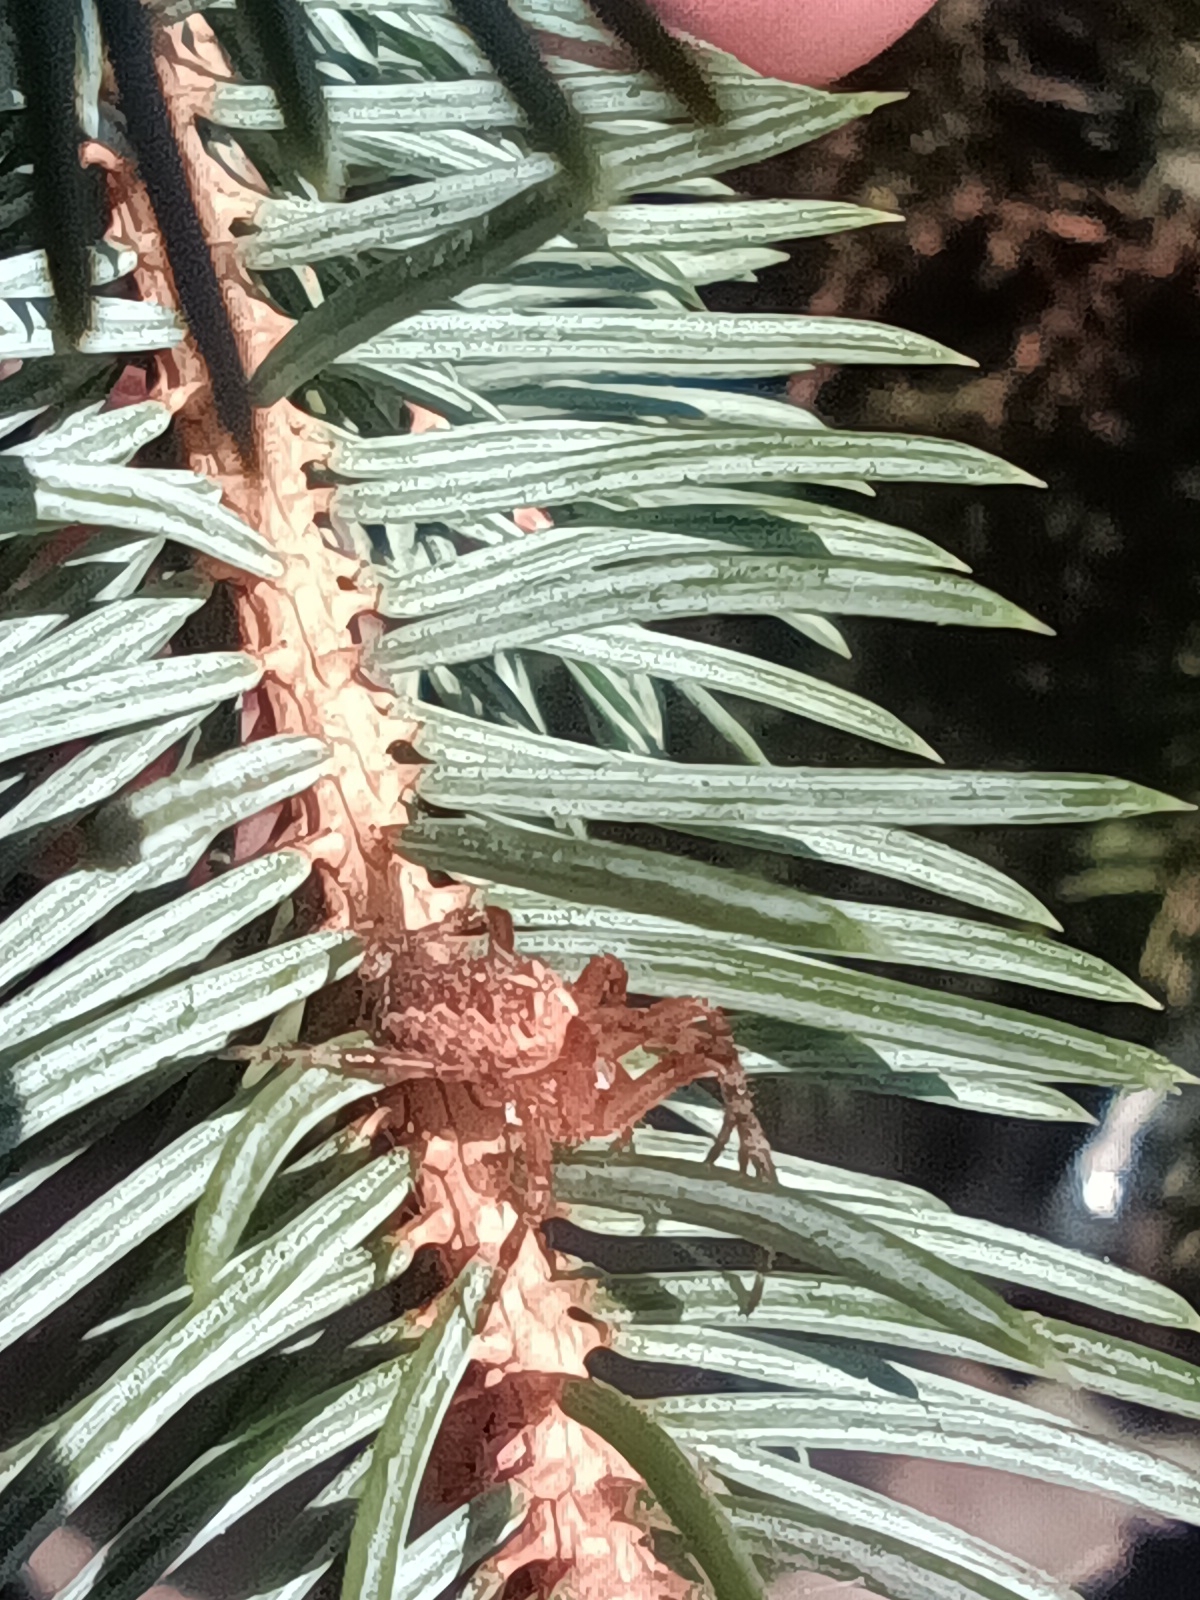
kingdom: Animalia
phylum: Arthropoda
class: Arachnida
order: Araneae
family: Araneidae
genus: Araneus
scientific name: Araneus diadematus
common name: Cross orbweaver
